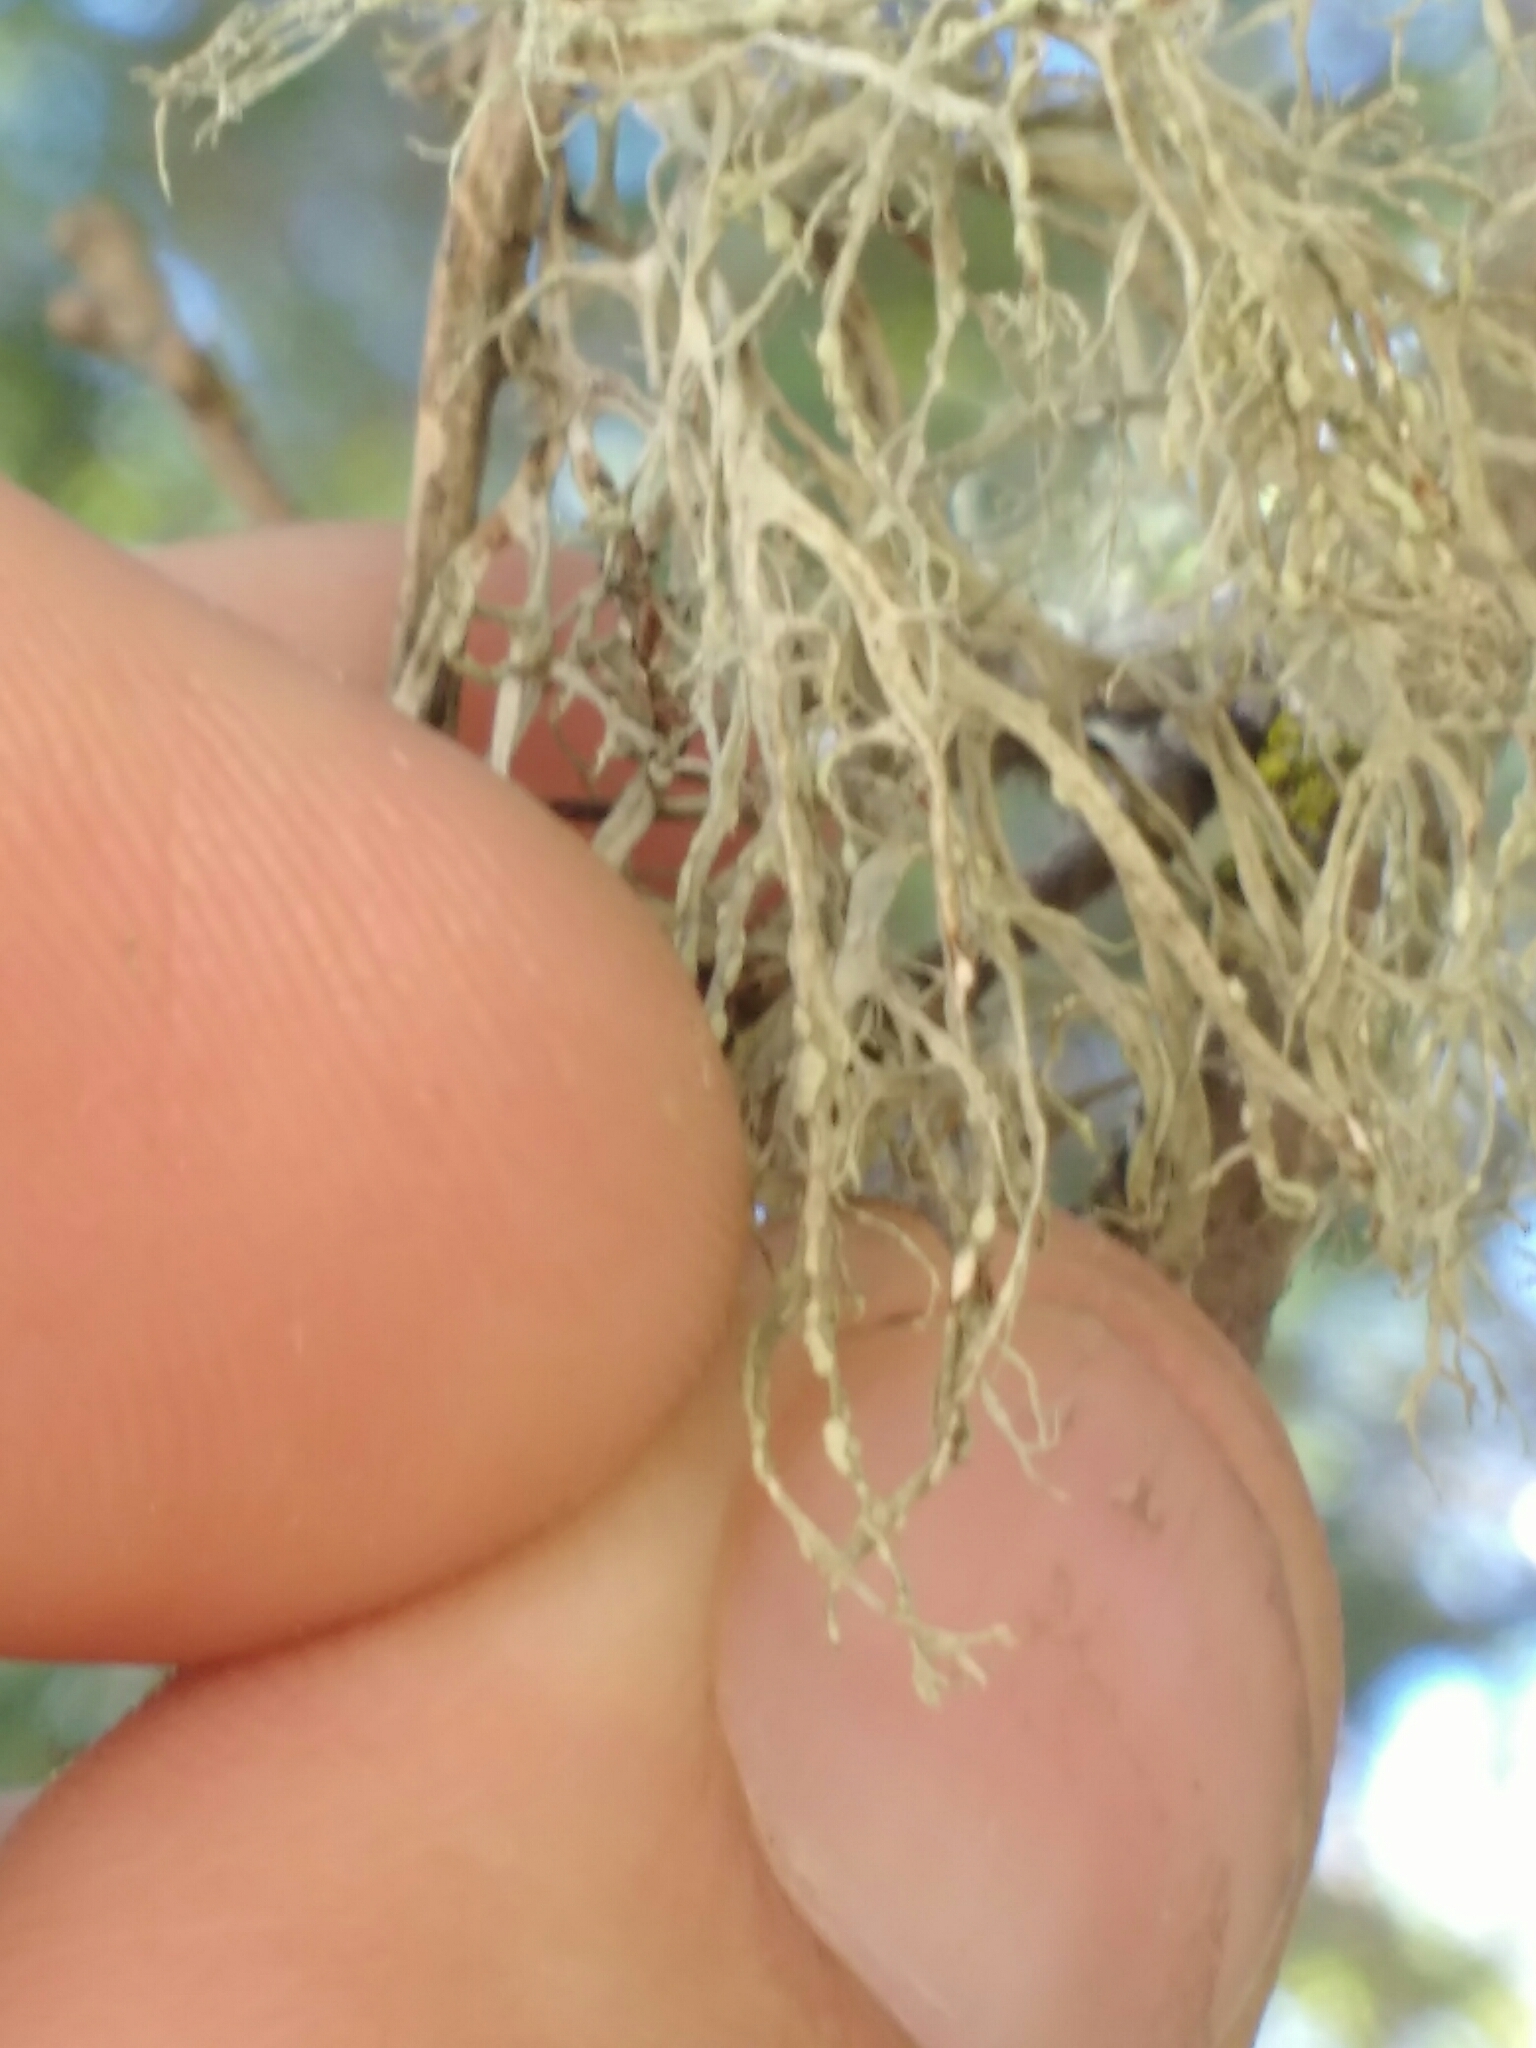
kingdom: Fungi
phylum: Ascomycota
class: Lecanoromycetes
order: Lecanorales
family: Ramalinaceae
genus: Ramalina
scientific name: Ramalina farinacea
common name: Farinose cartilage lichen
